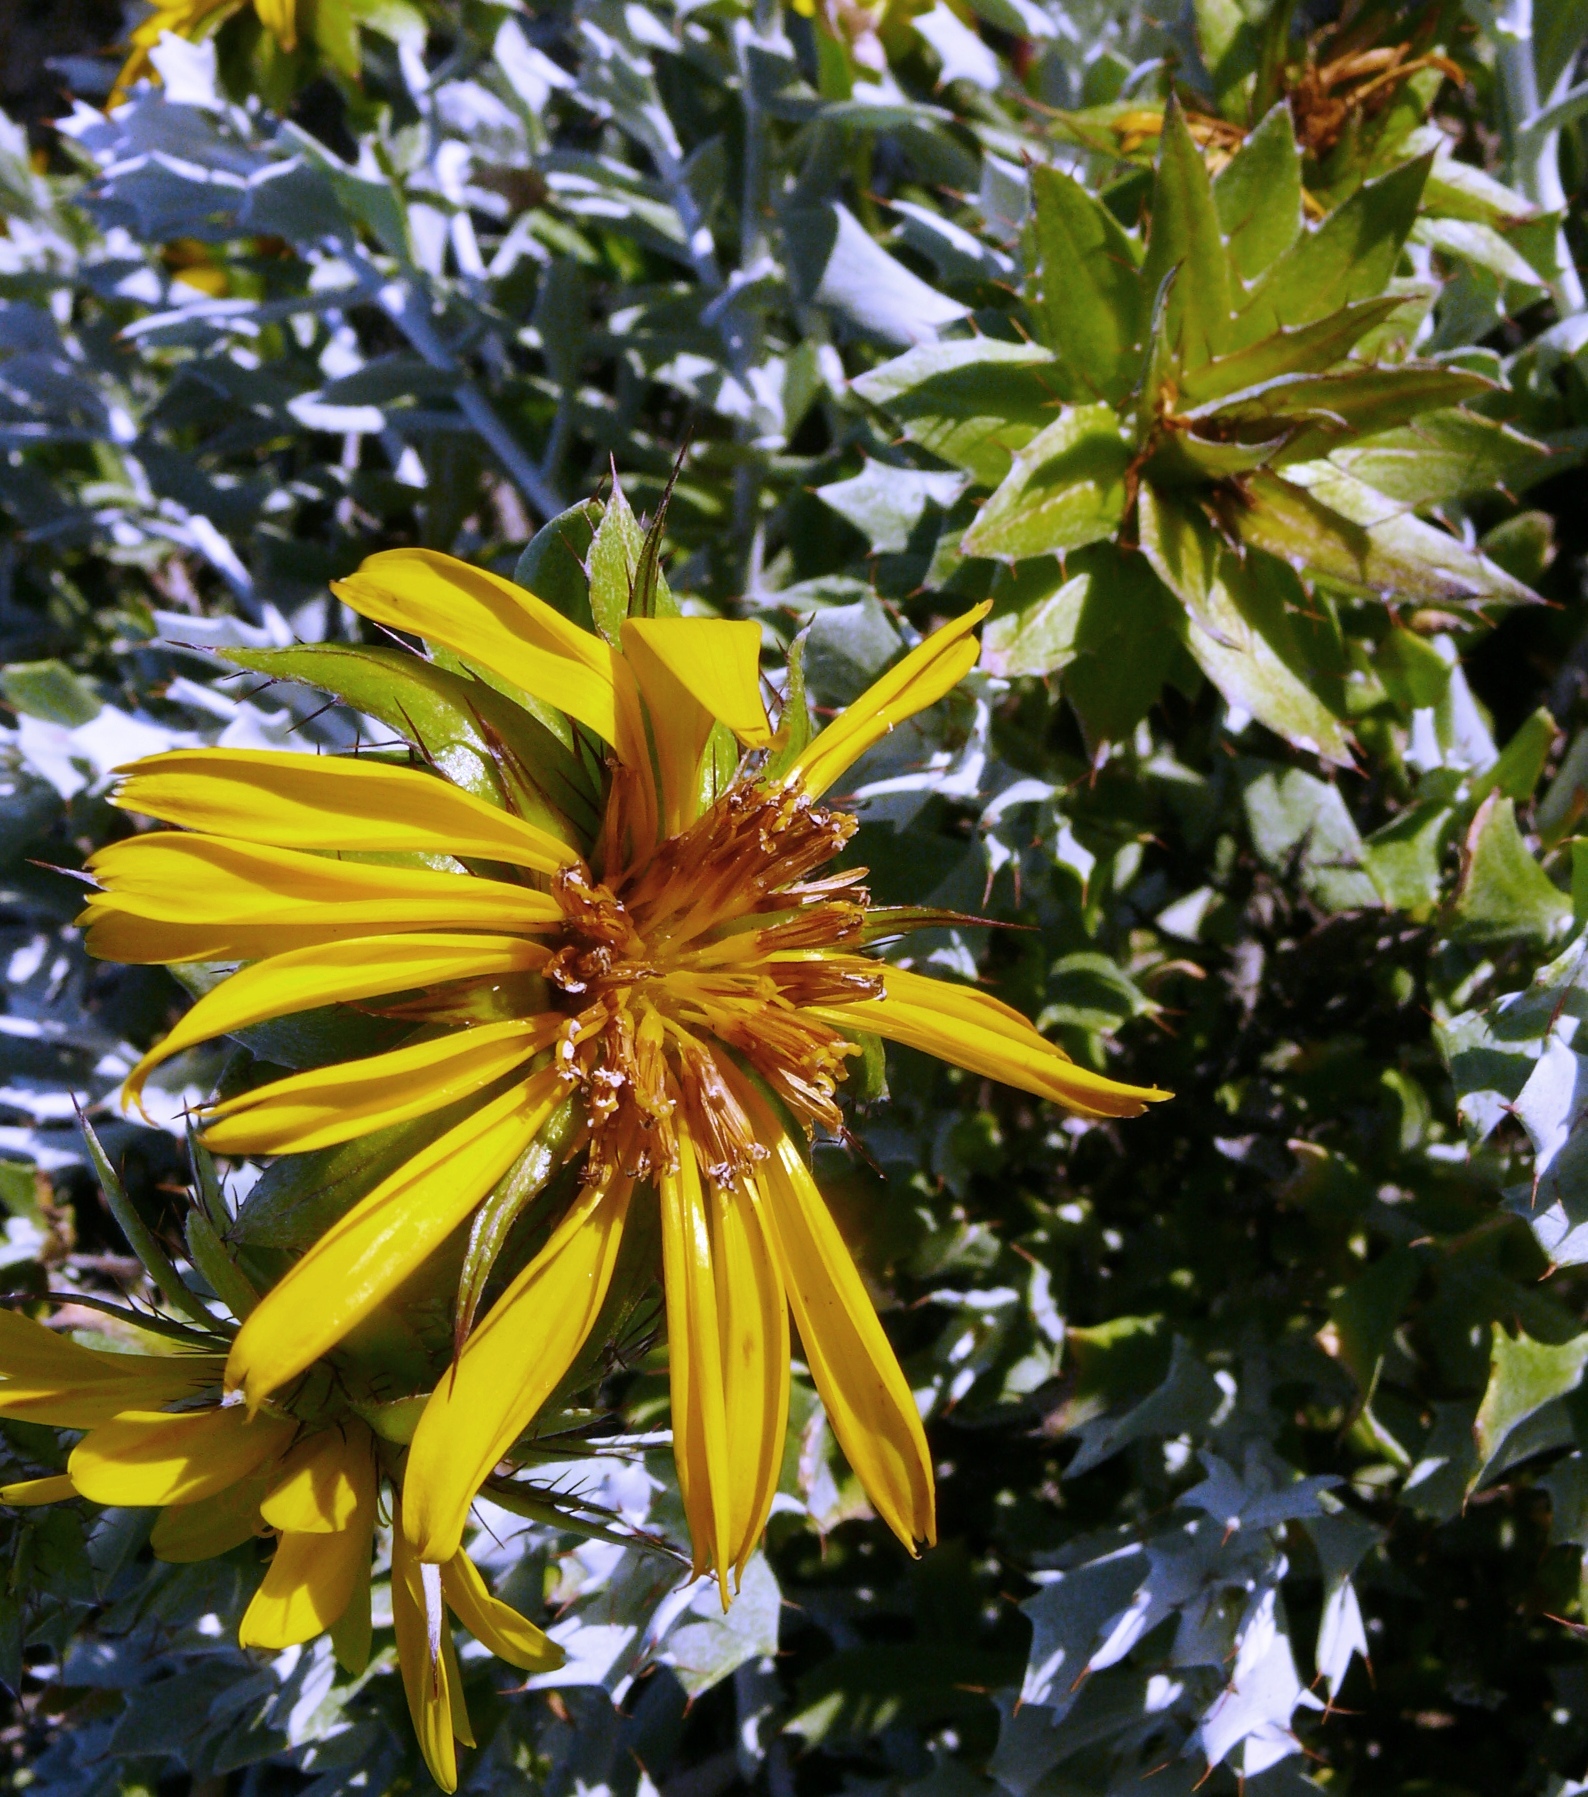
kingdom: Plantae
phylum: Tracheophyta
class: Magnoliopsida
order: Asterales
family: Asteraceae
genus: Berkheya
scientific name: Berkheya cuneata
